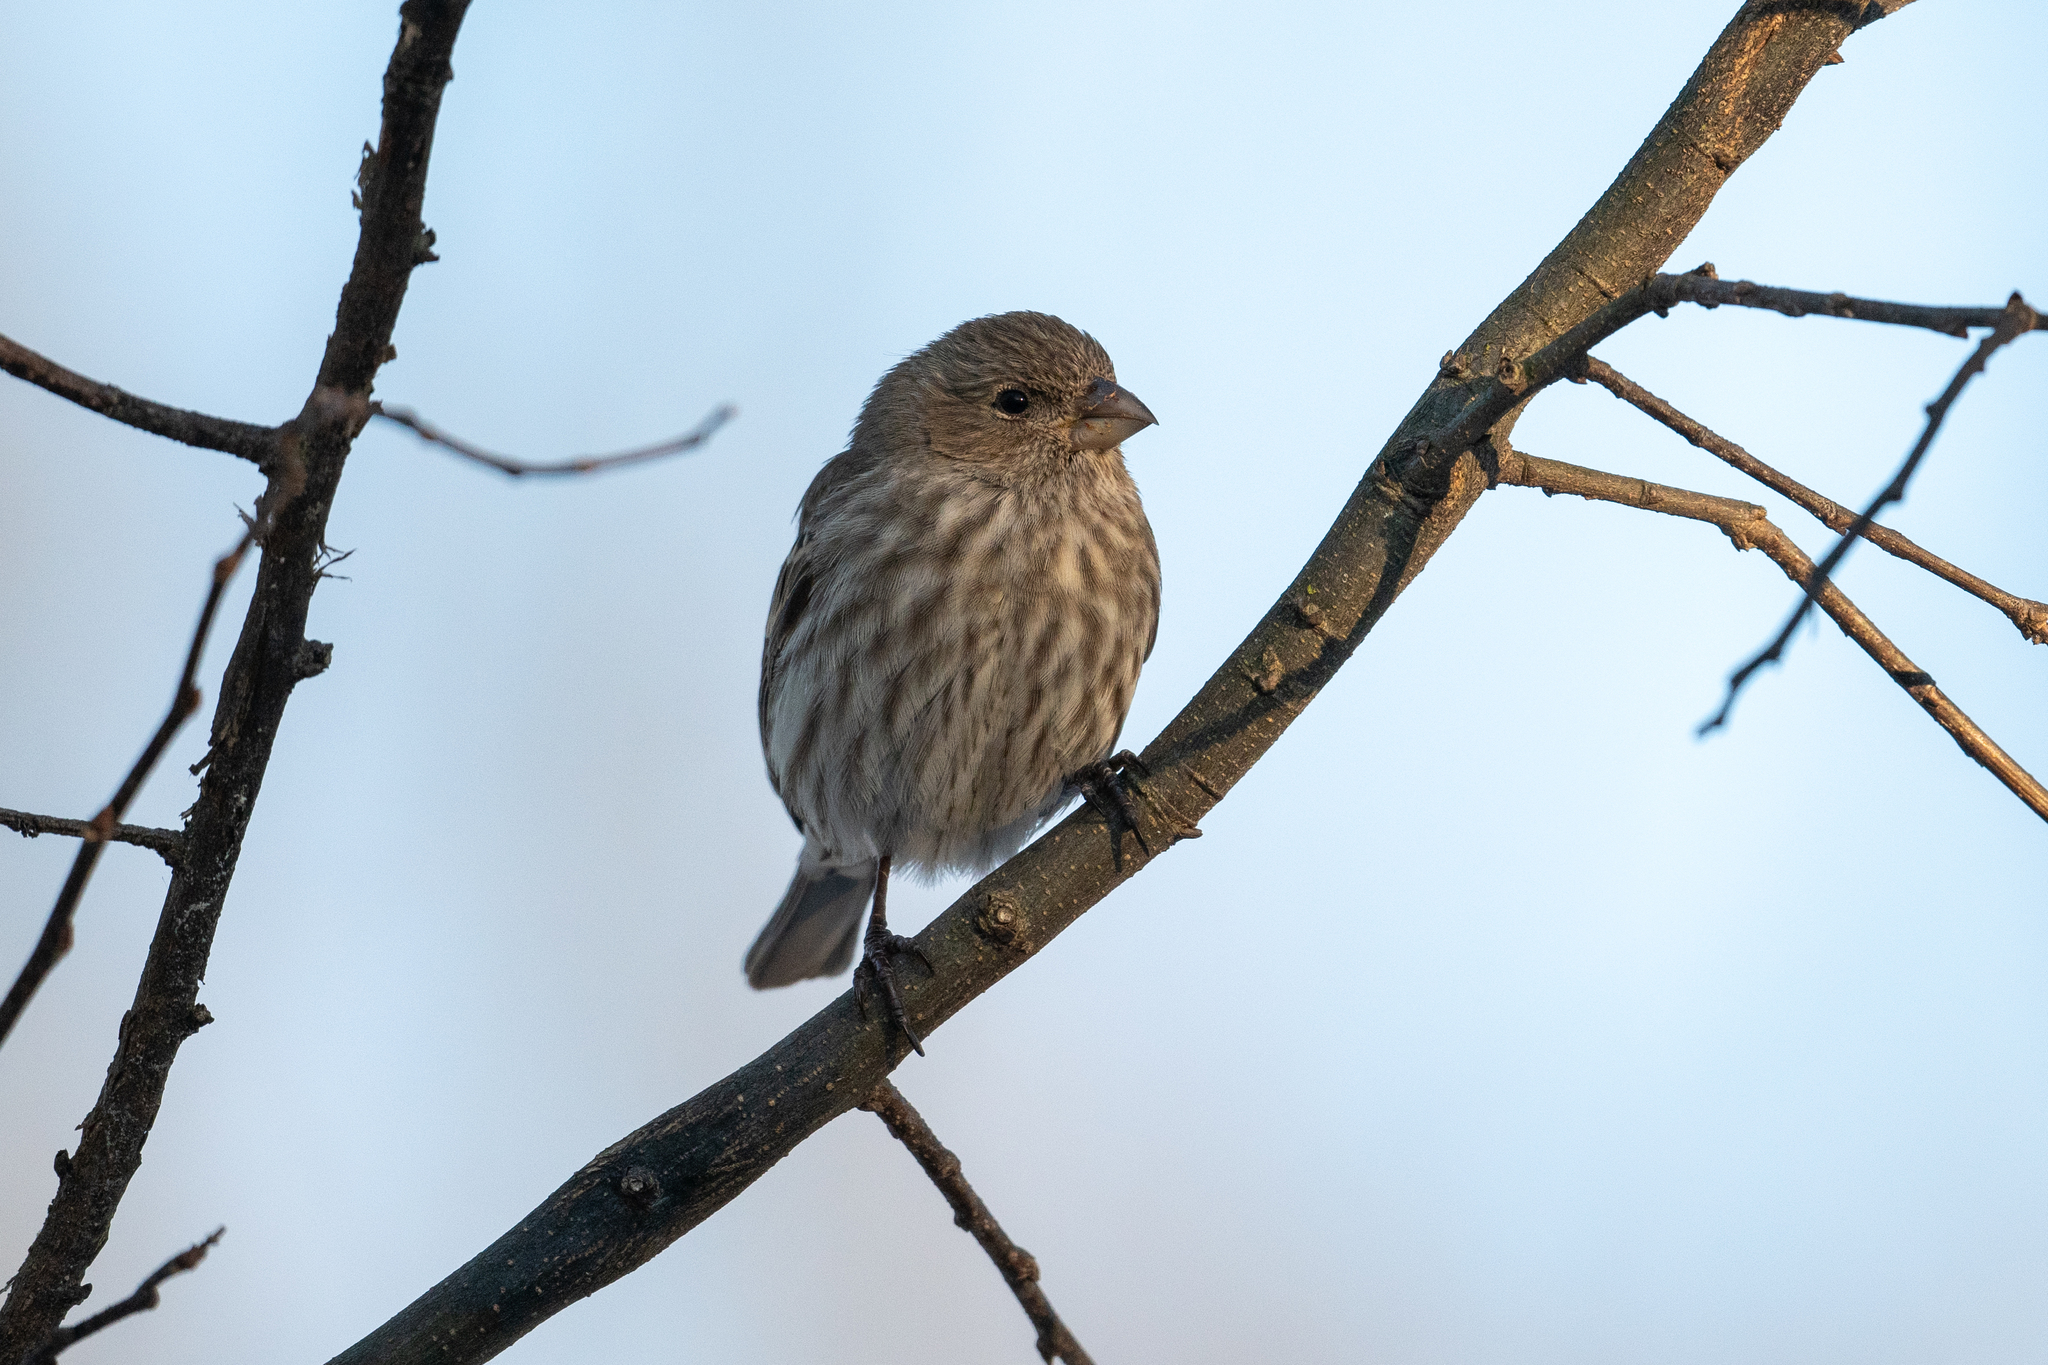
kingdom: Animalia
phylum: Chordata
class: Aves
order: Passeriformes
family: Fringillidae
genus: Haemorhous
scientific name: Haemorhous mexicanus
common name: House finch
